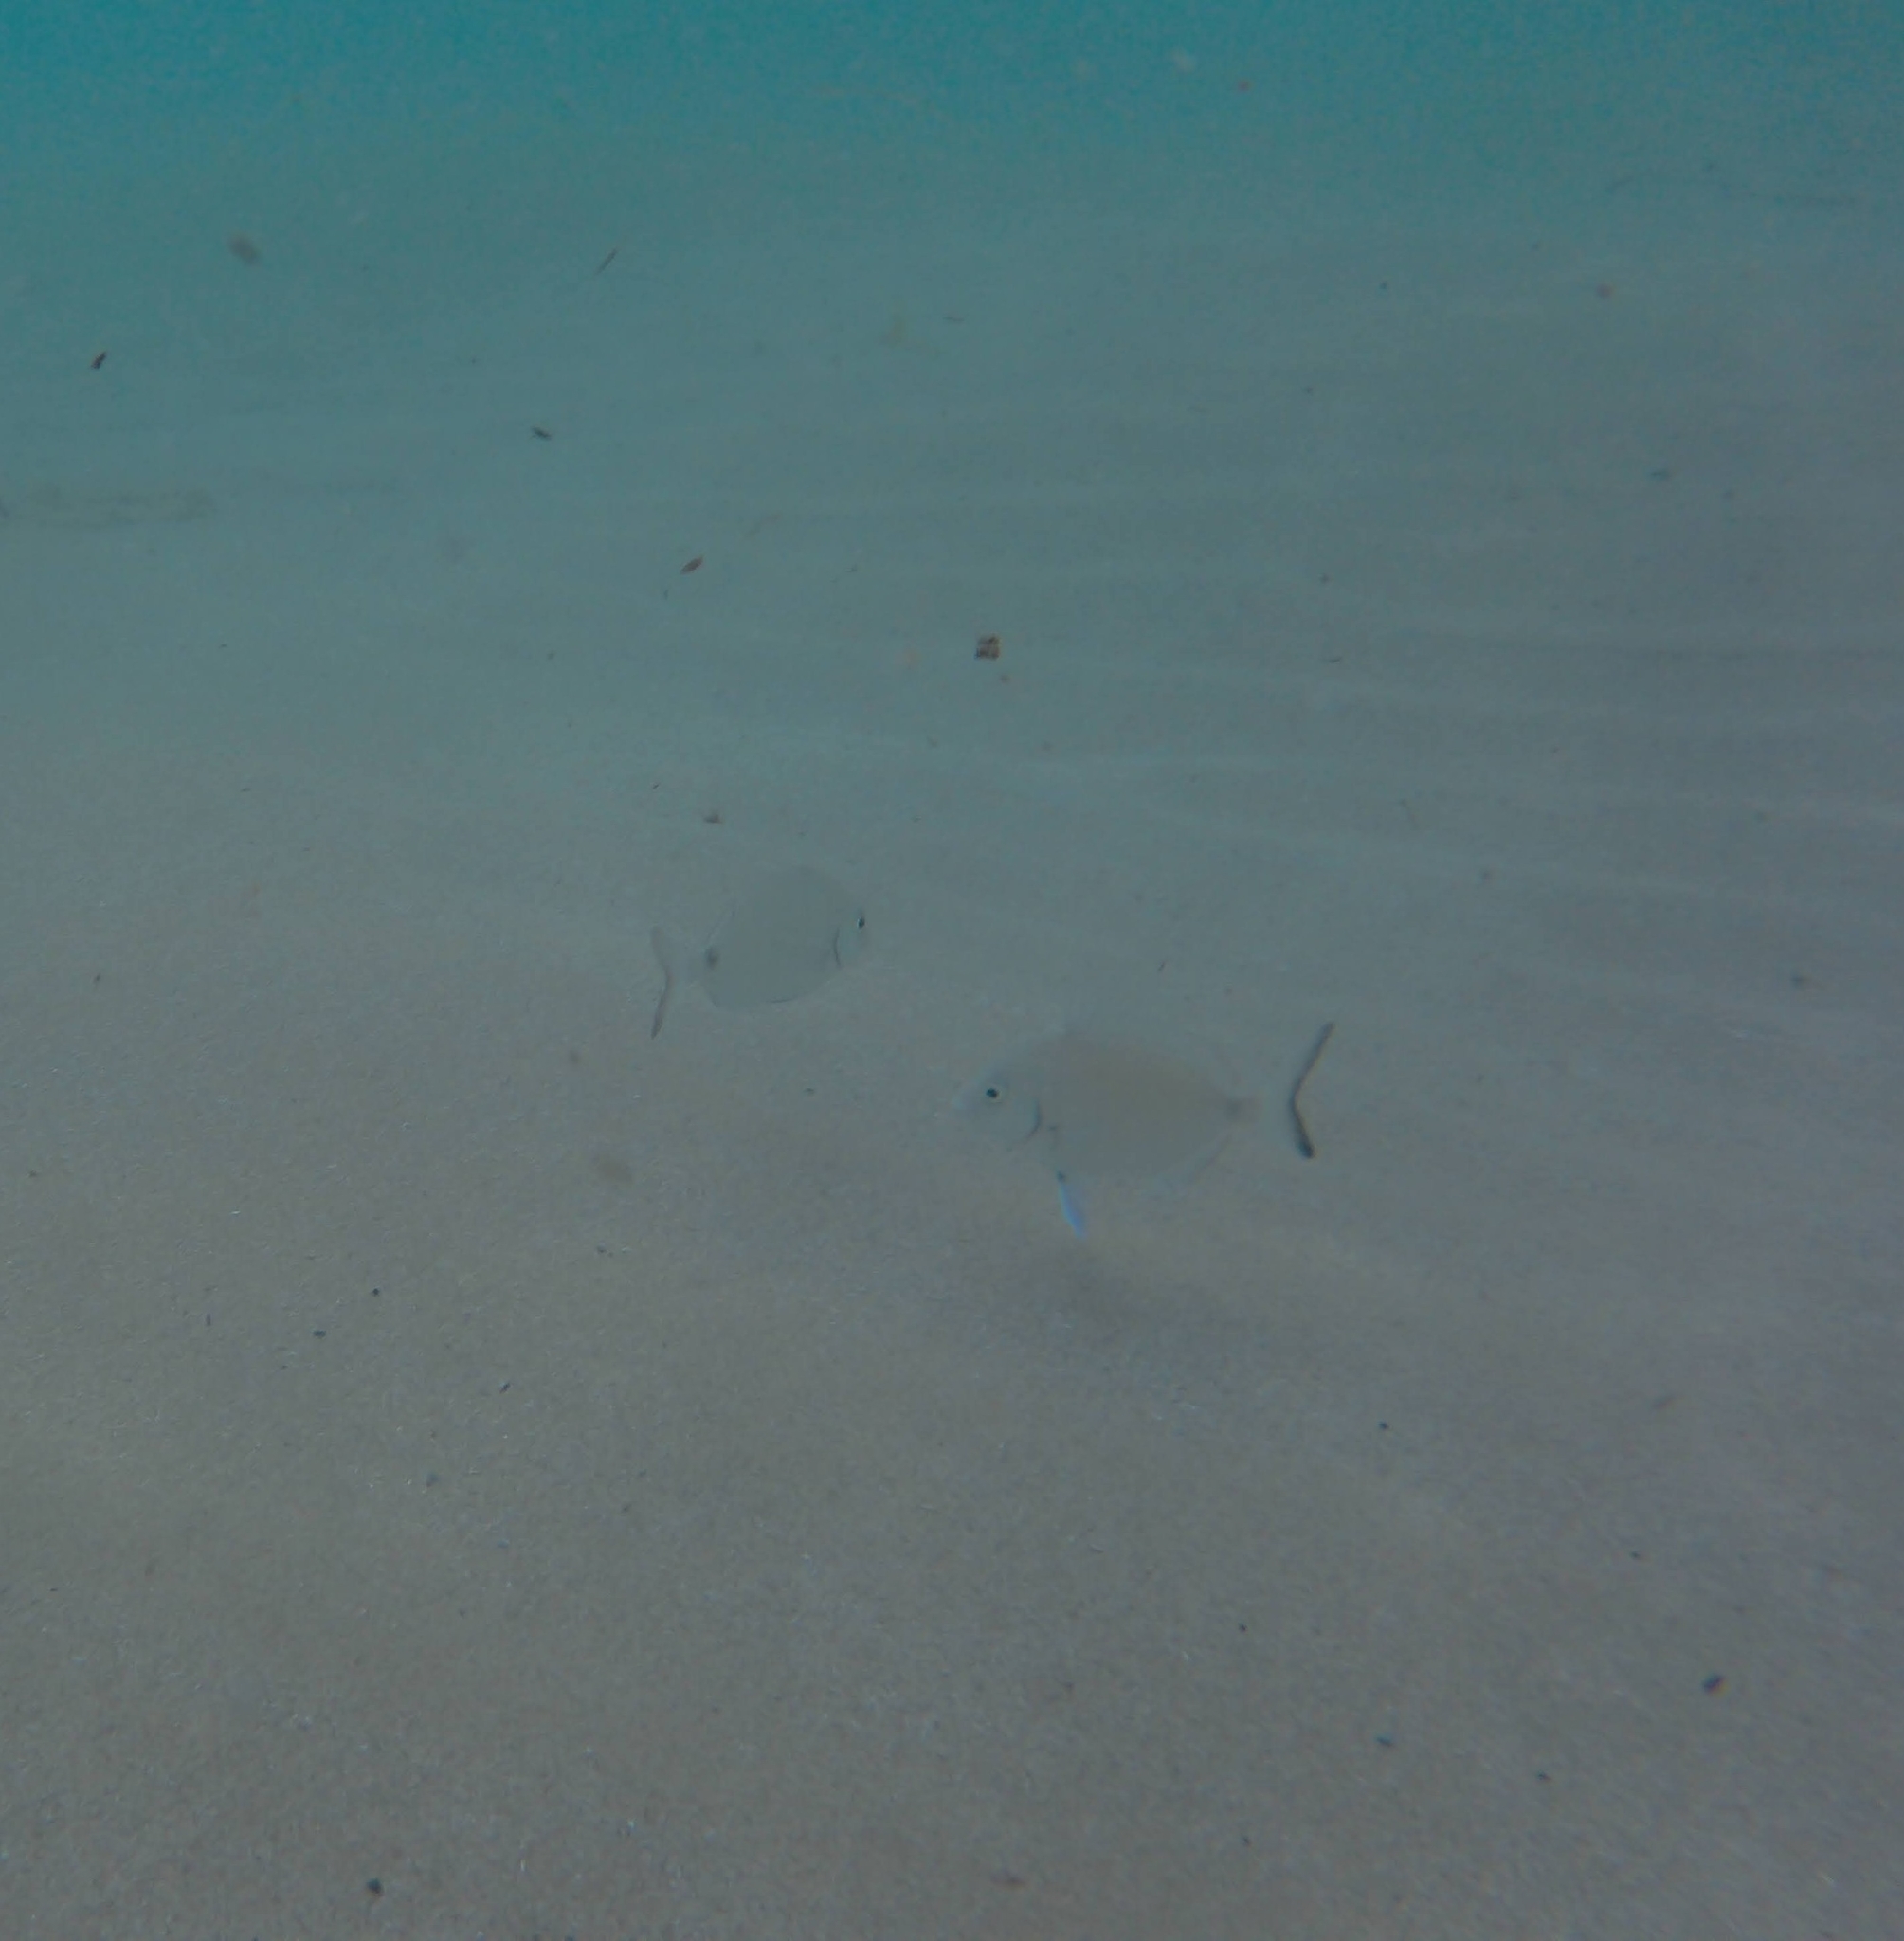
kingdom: Animalia
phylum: Chordata
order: Perciformes
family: Sparidae
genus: Diplodus
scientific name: Diplodus sargus
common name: White seabream
